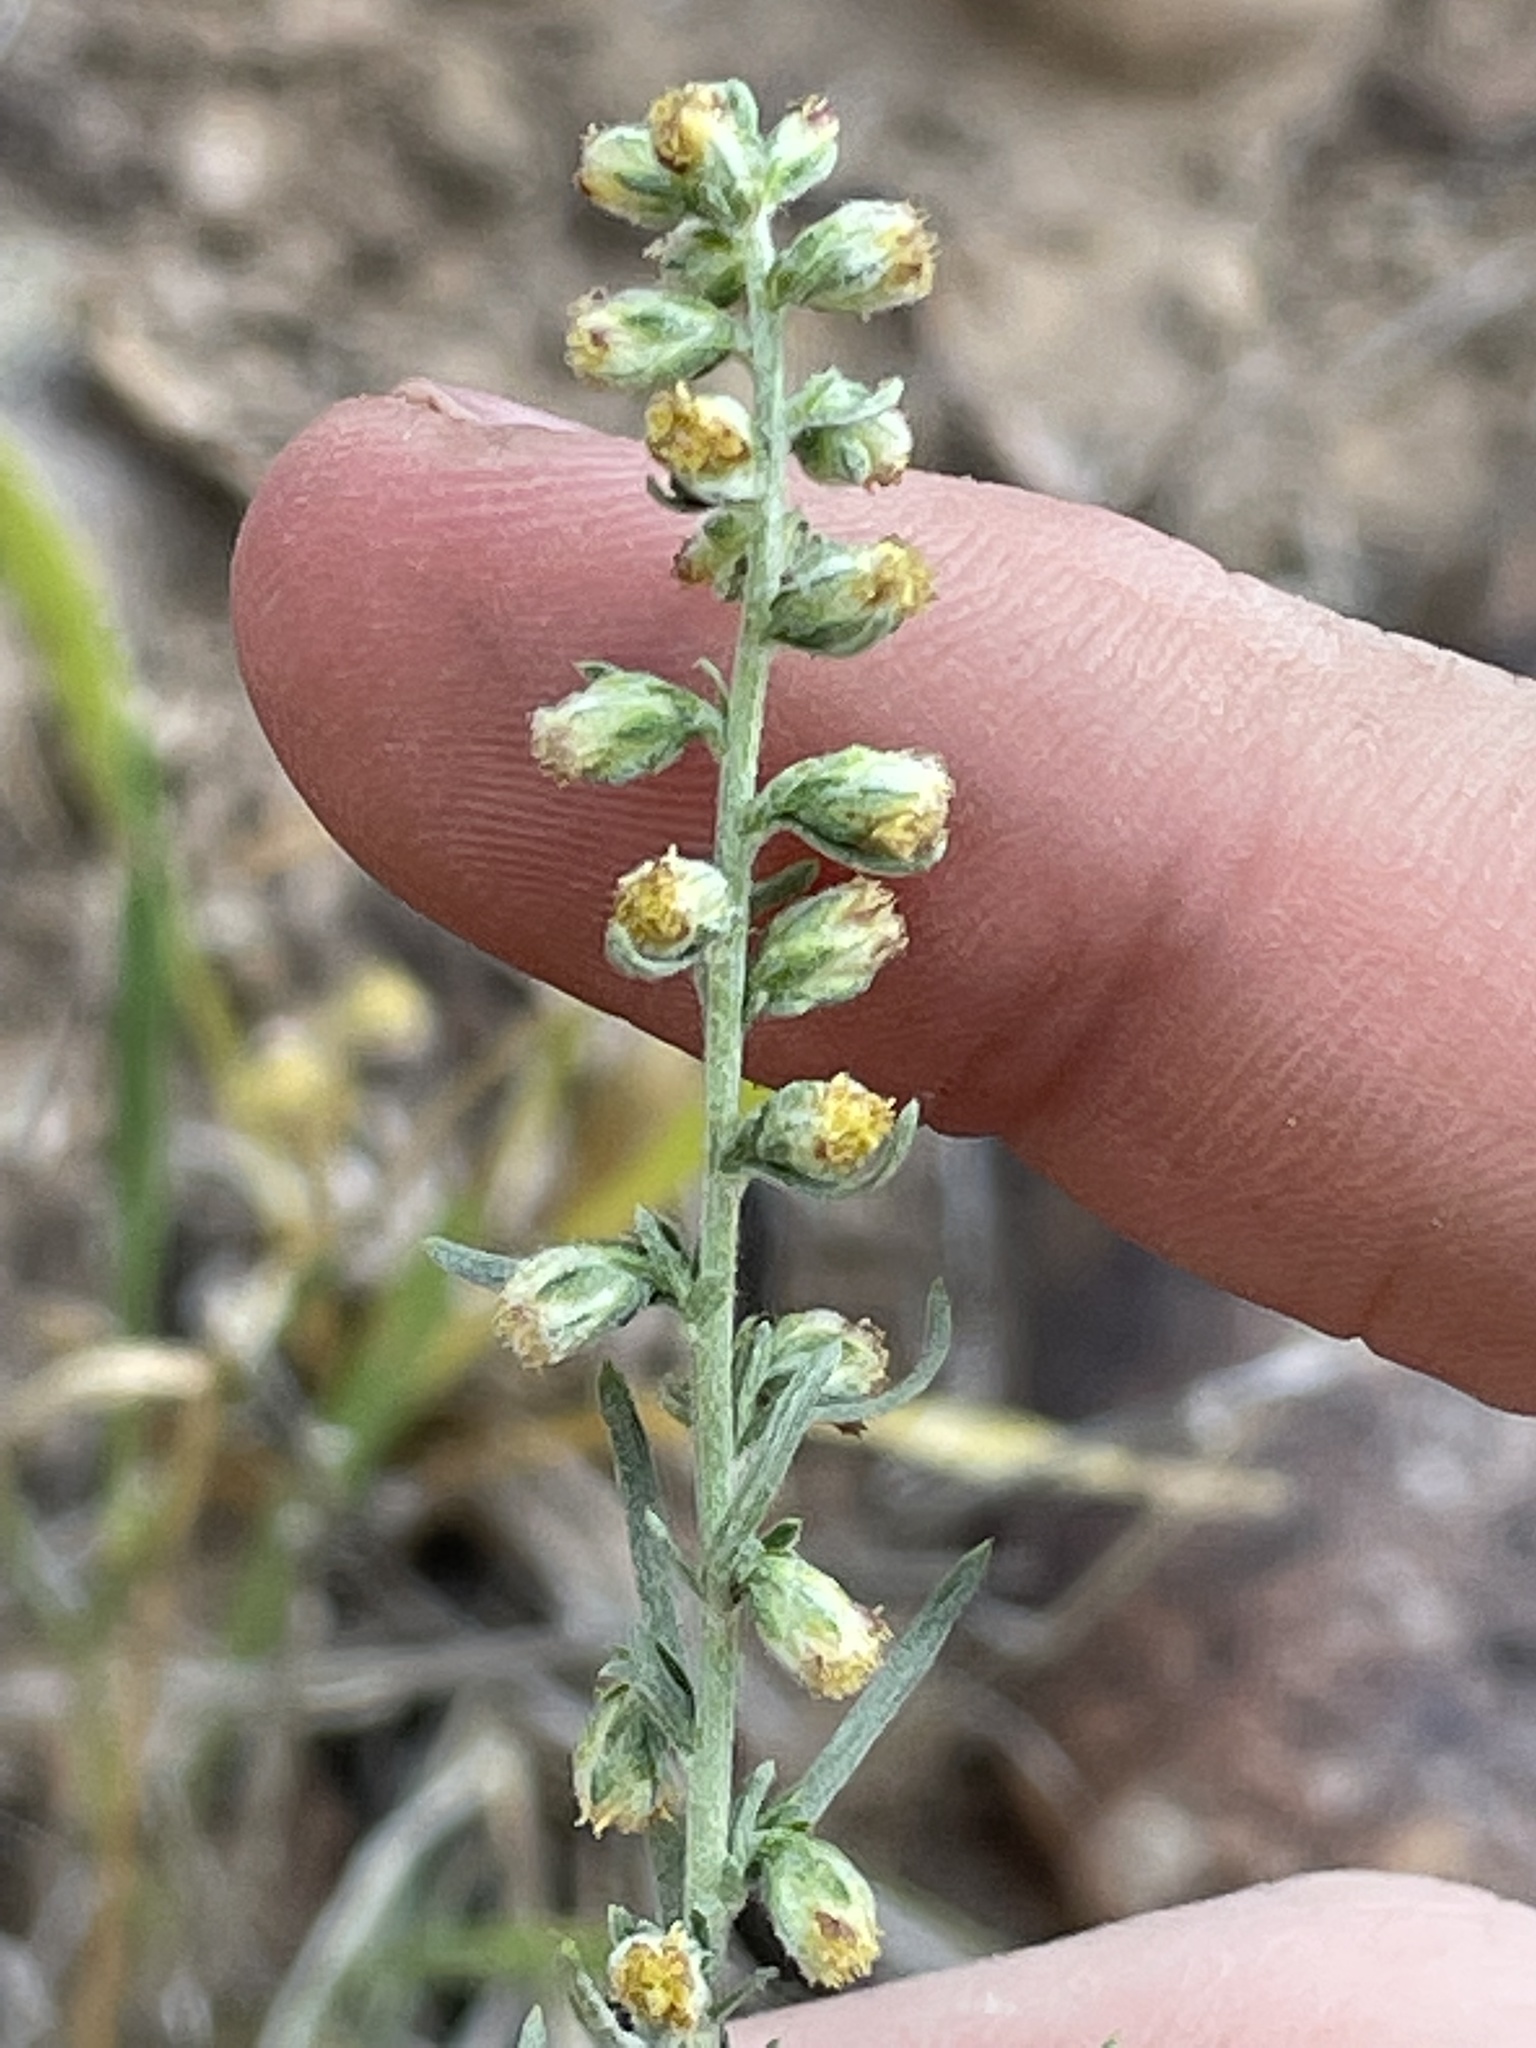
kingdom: Plantae
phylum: Tracheophyta
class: Magnoliopsida
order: Asterales
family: Asteraceae
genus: Artemisia
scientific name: Artemisia ludoviciana
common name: Western mugwort
